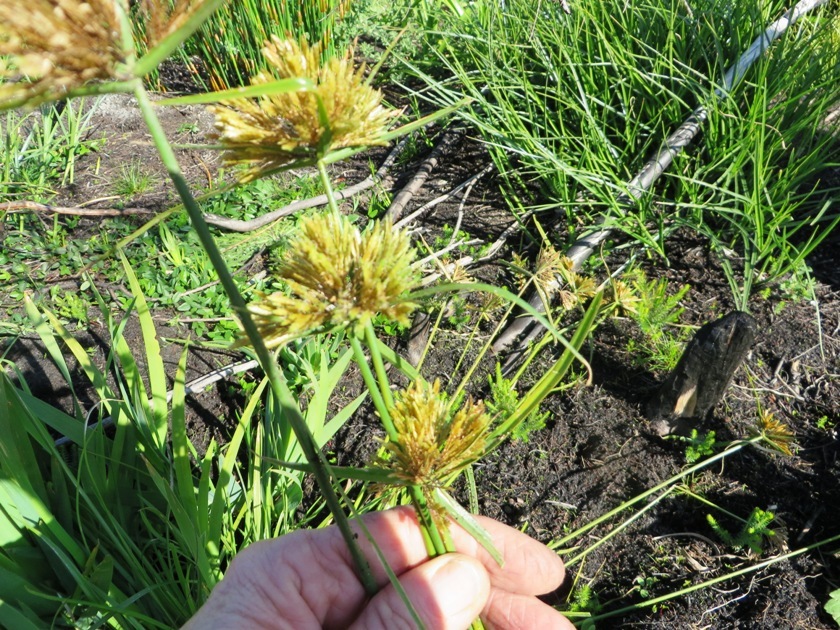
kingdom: Plantae
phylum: Tracheophyta
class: Liliopsida
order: Poales
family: Cyperaceae
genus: Cyperus
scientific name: Cyperus polystachyos
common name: Bunchy flat sedge
